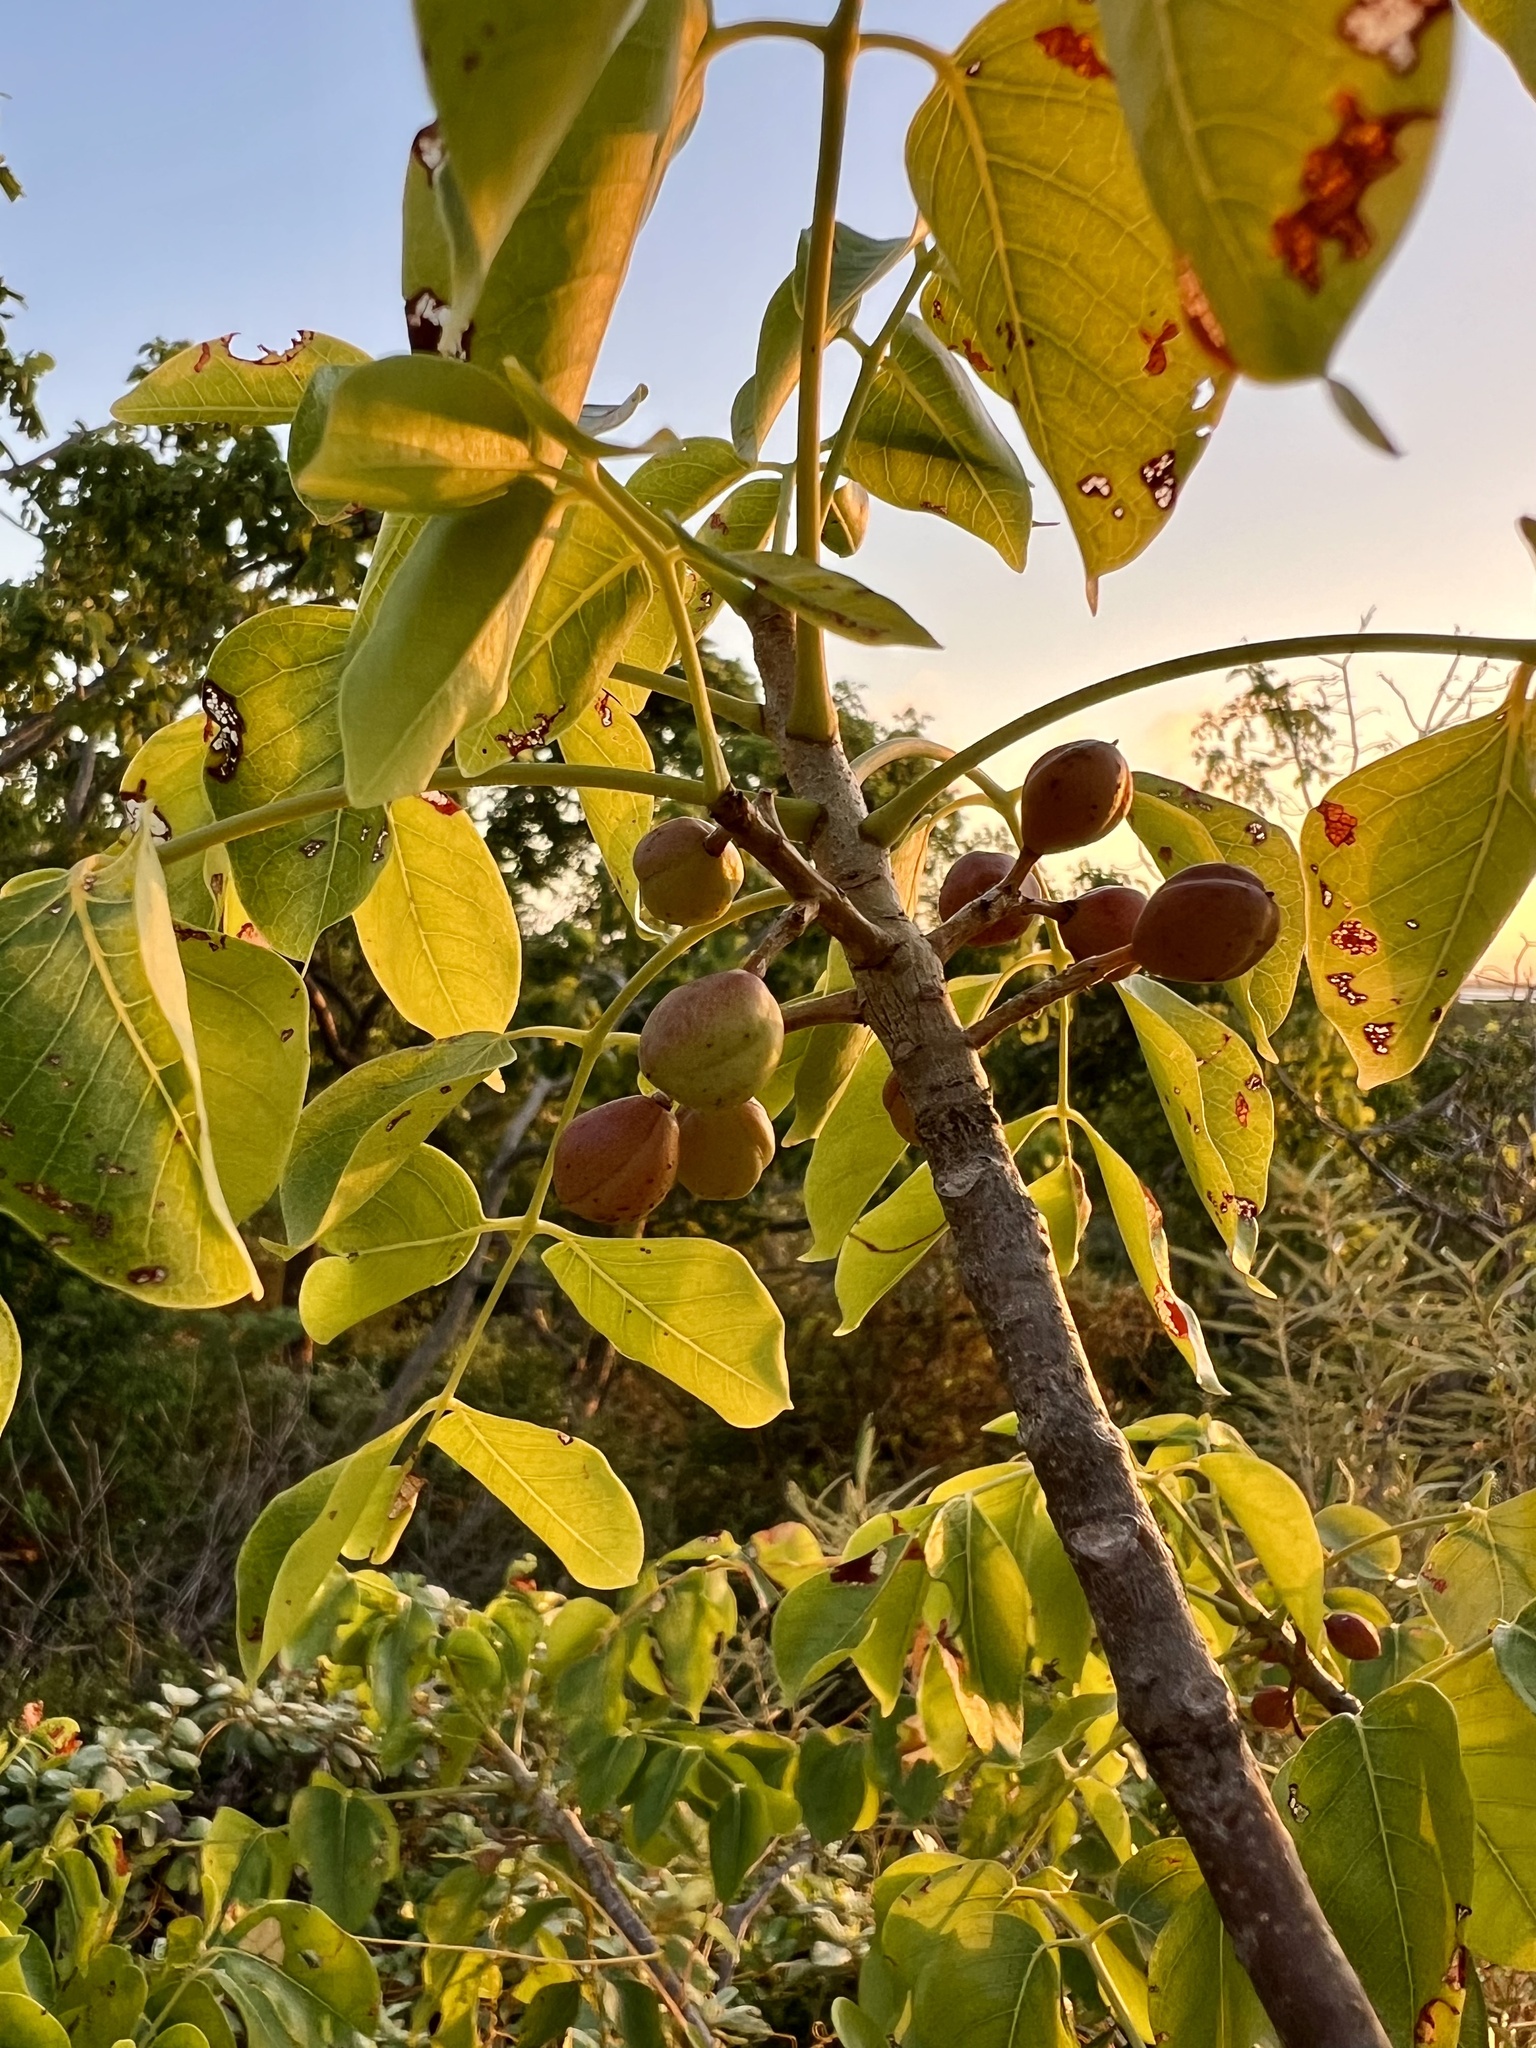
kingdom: Plantae
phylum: Tracheophyta
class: Magnoliopsida
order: Sapindales
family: Burseraceae
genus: Bursera
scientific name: Bursera simaruba
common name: Turpentine tree
